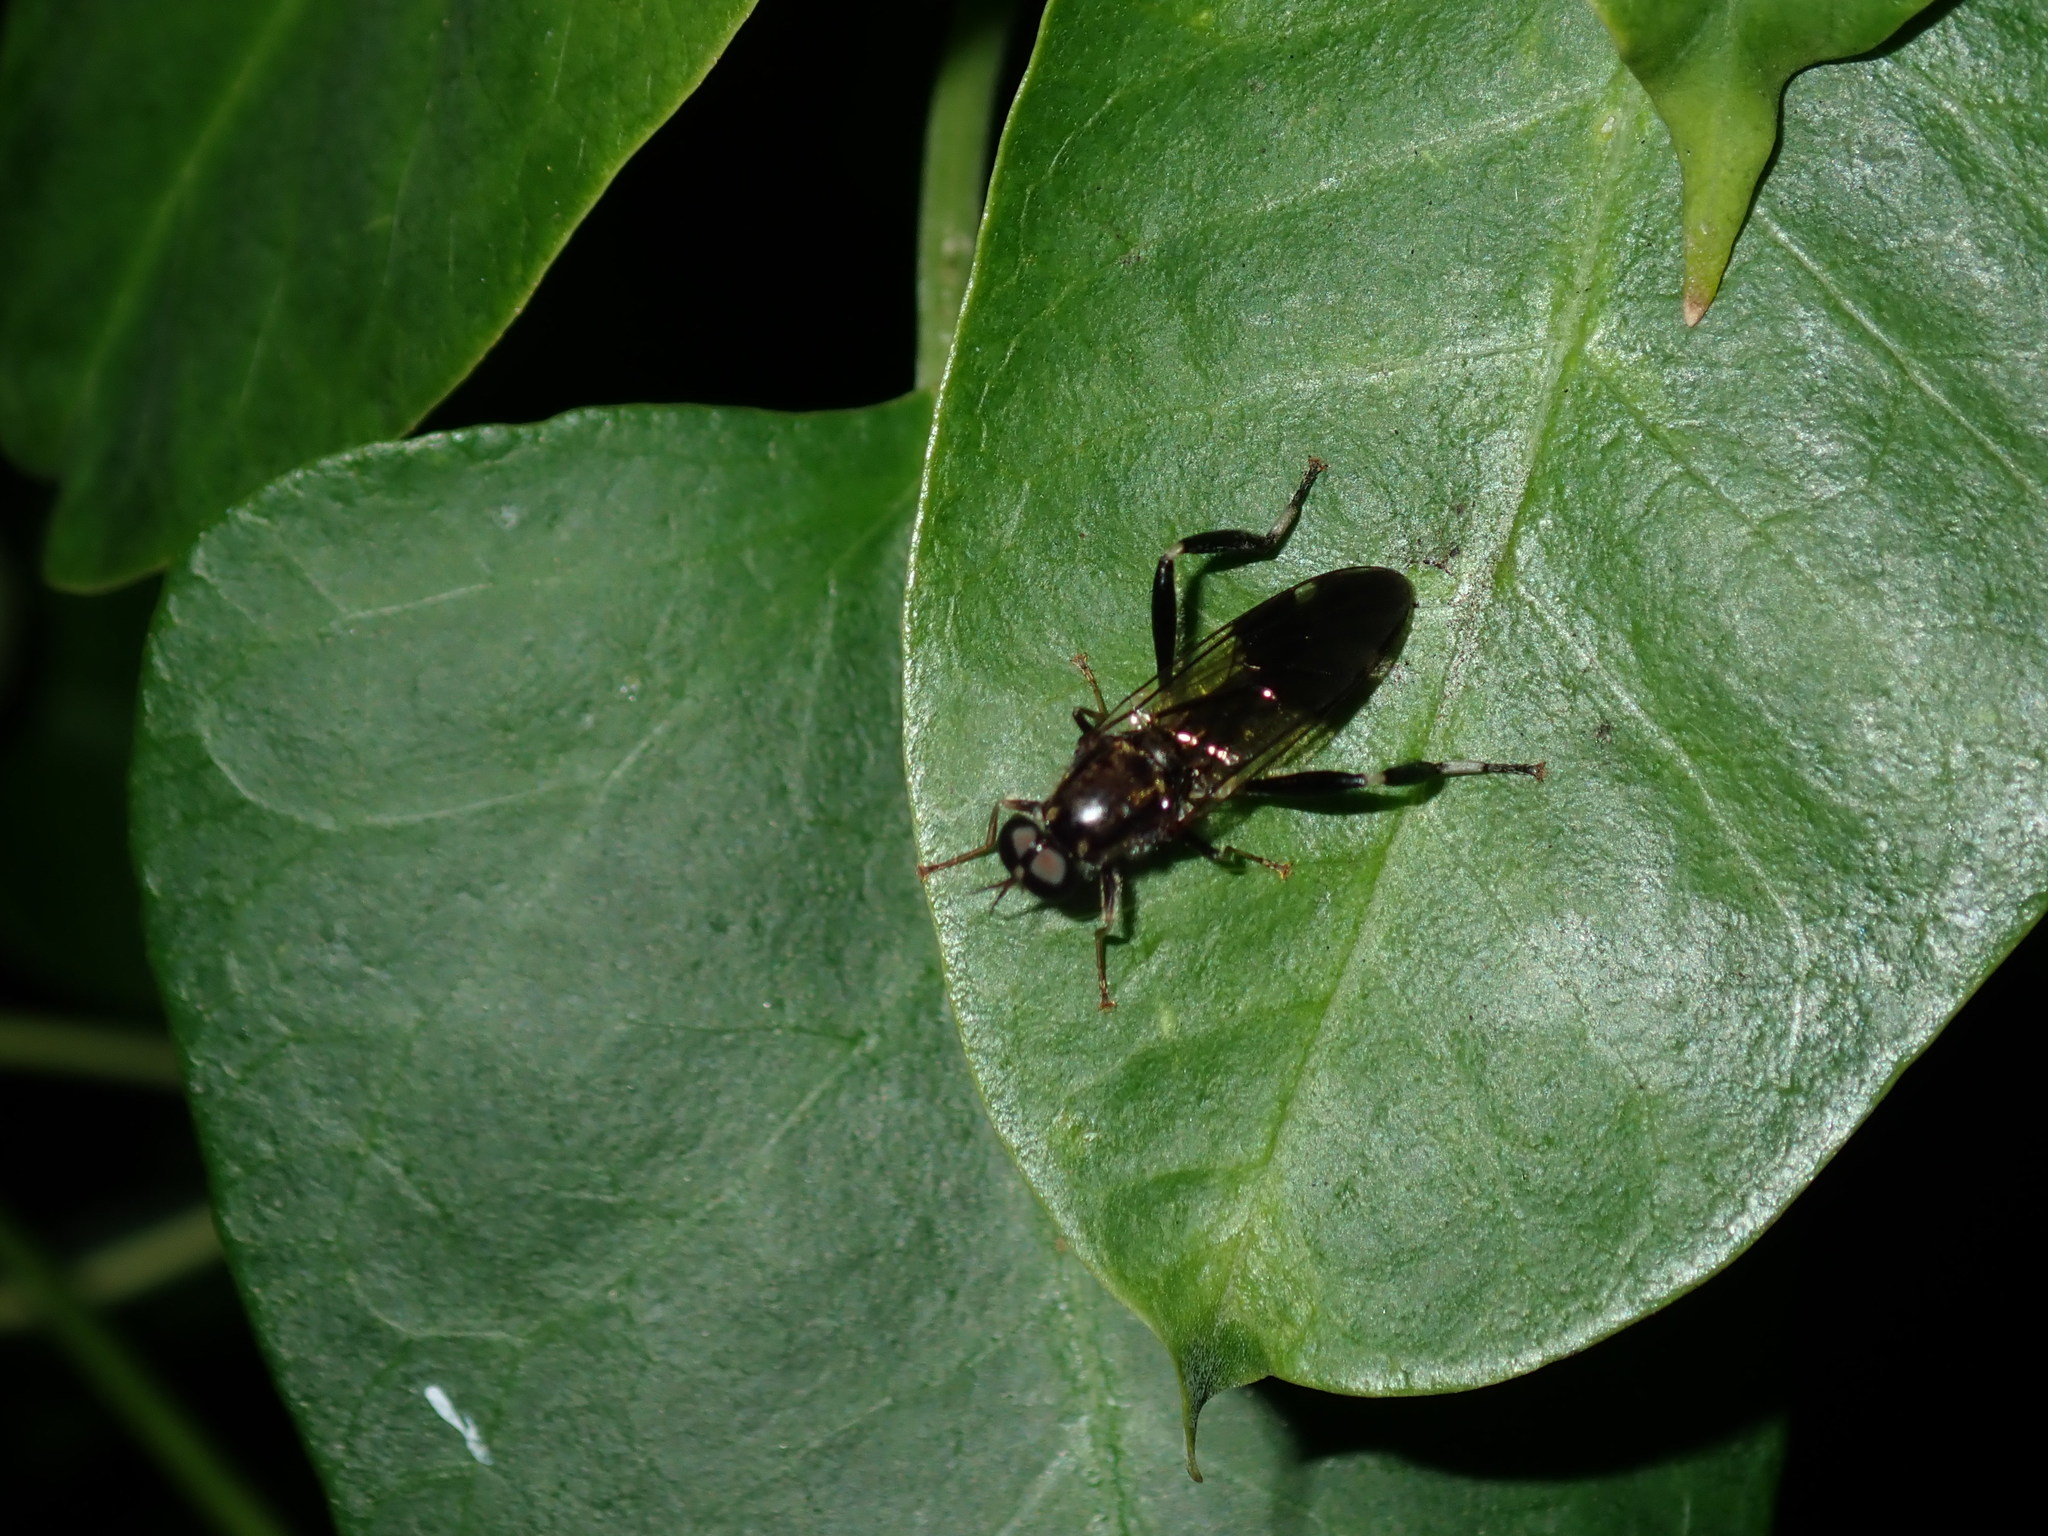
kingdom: Animalia
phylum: Arthropoda
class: Insecta
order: Diptera
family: Stratiomyidae
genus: Exaireta
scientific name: Exaireta spinigera
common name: Blue soldier fly
